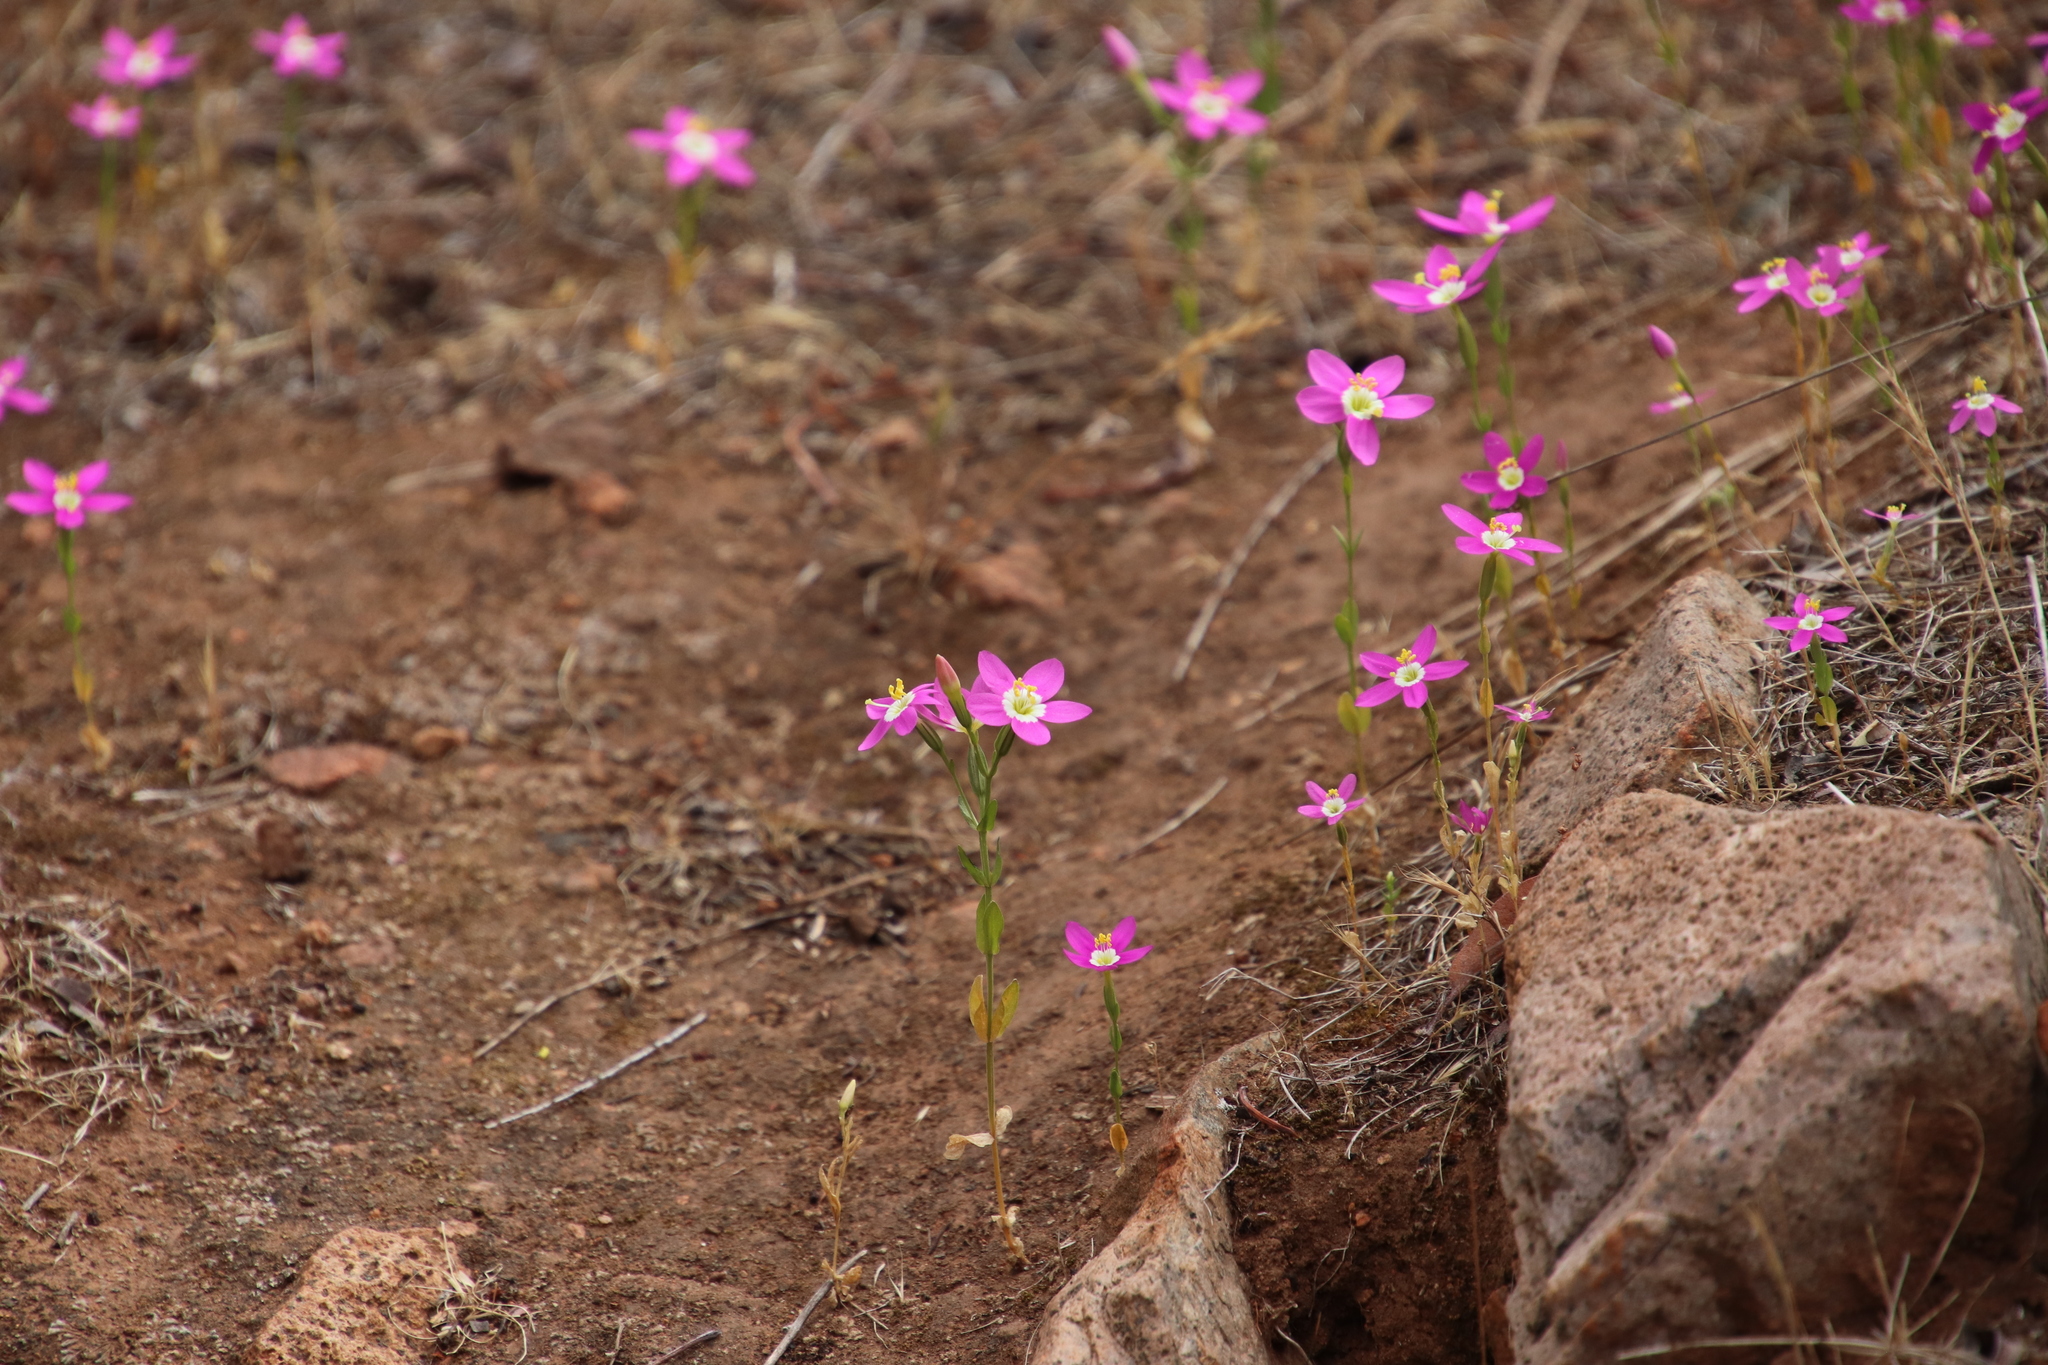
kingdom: Plantae
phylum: Tracheophyta
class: Magnoliopsida
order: Gentianales
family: Gentianaceae
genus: Zeltnera
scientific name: Zeltnera venusta
